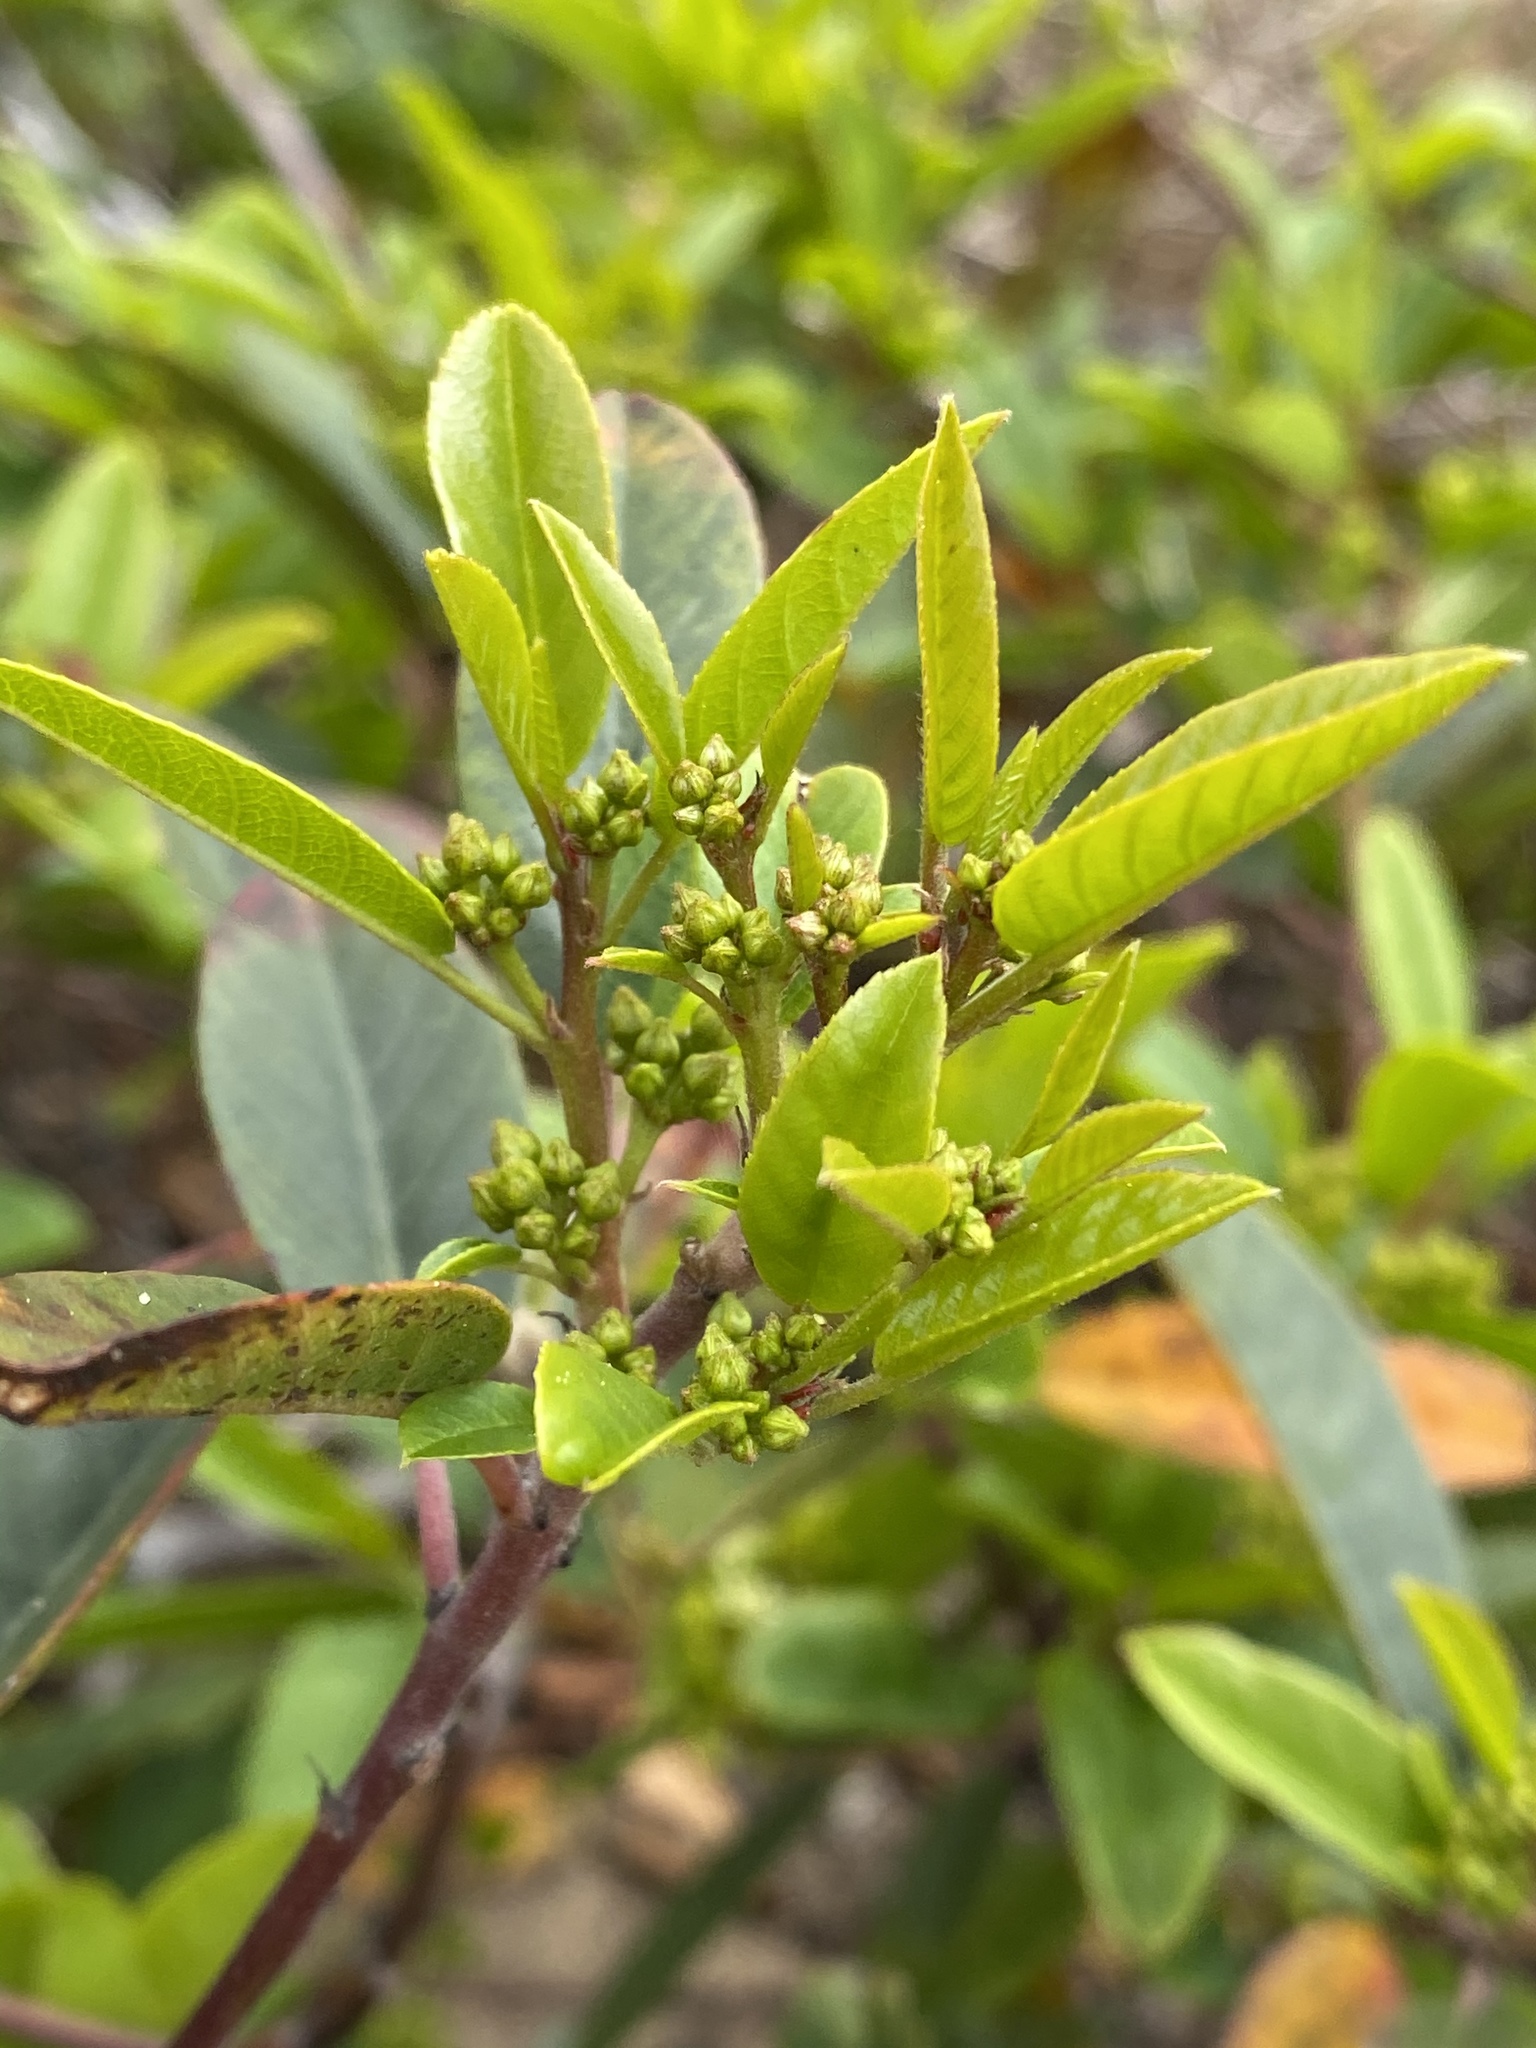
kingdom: Plantae
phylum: Tracheophyta
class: Magnoliopsida
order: Rosales
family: Rhamnaceae
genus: Frangula
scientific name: Frangula californica
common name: California buckthorn
